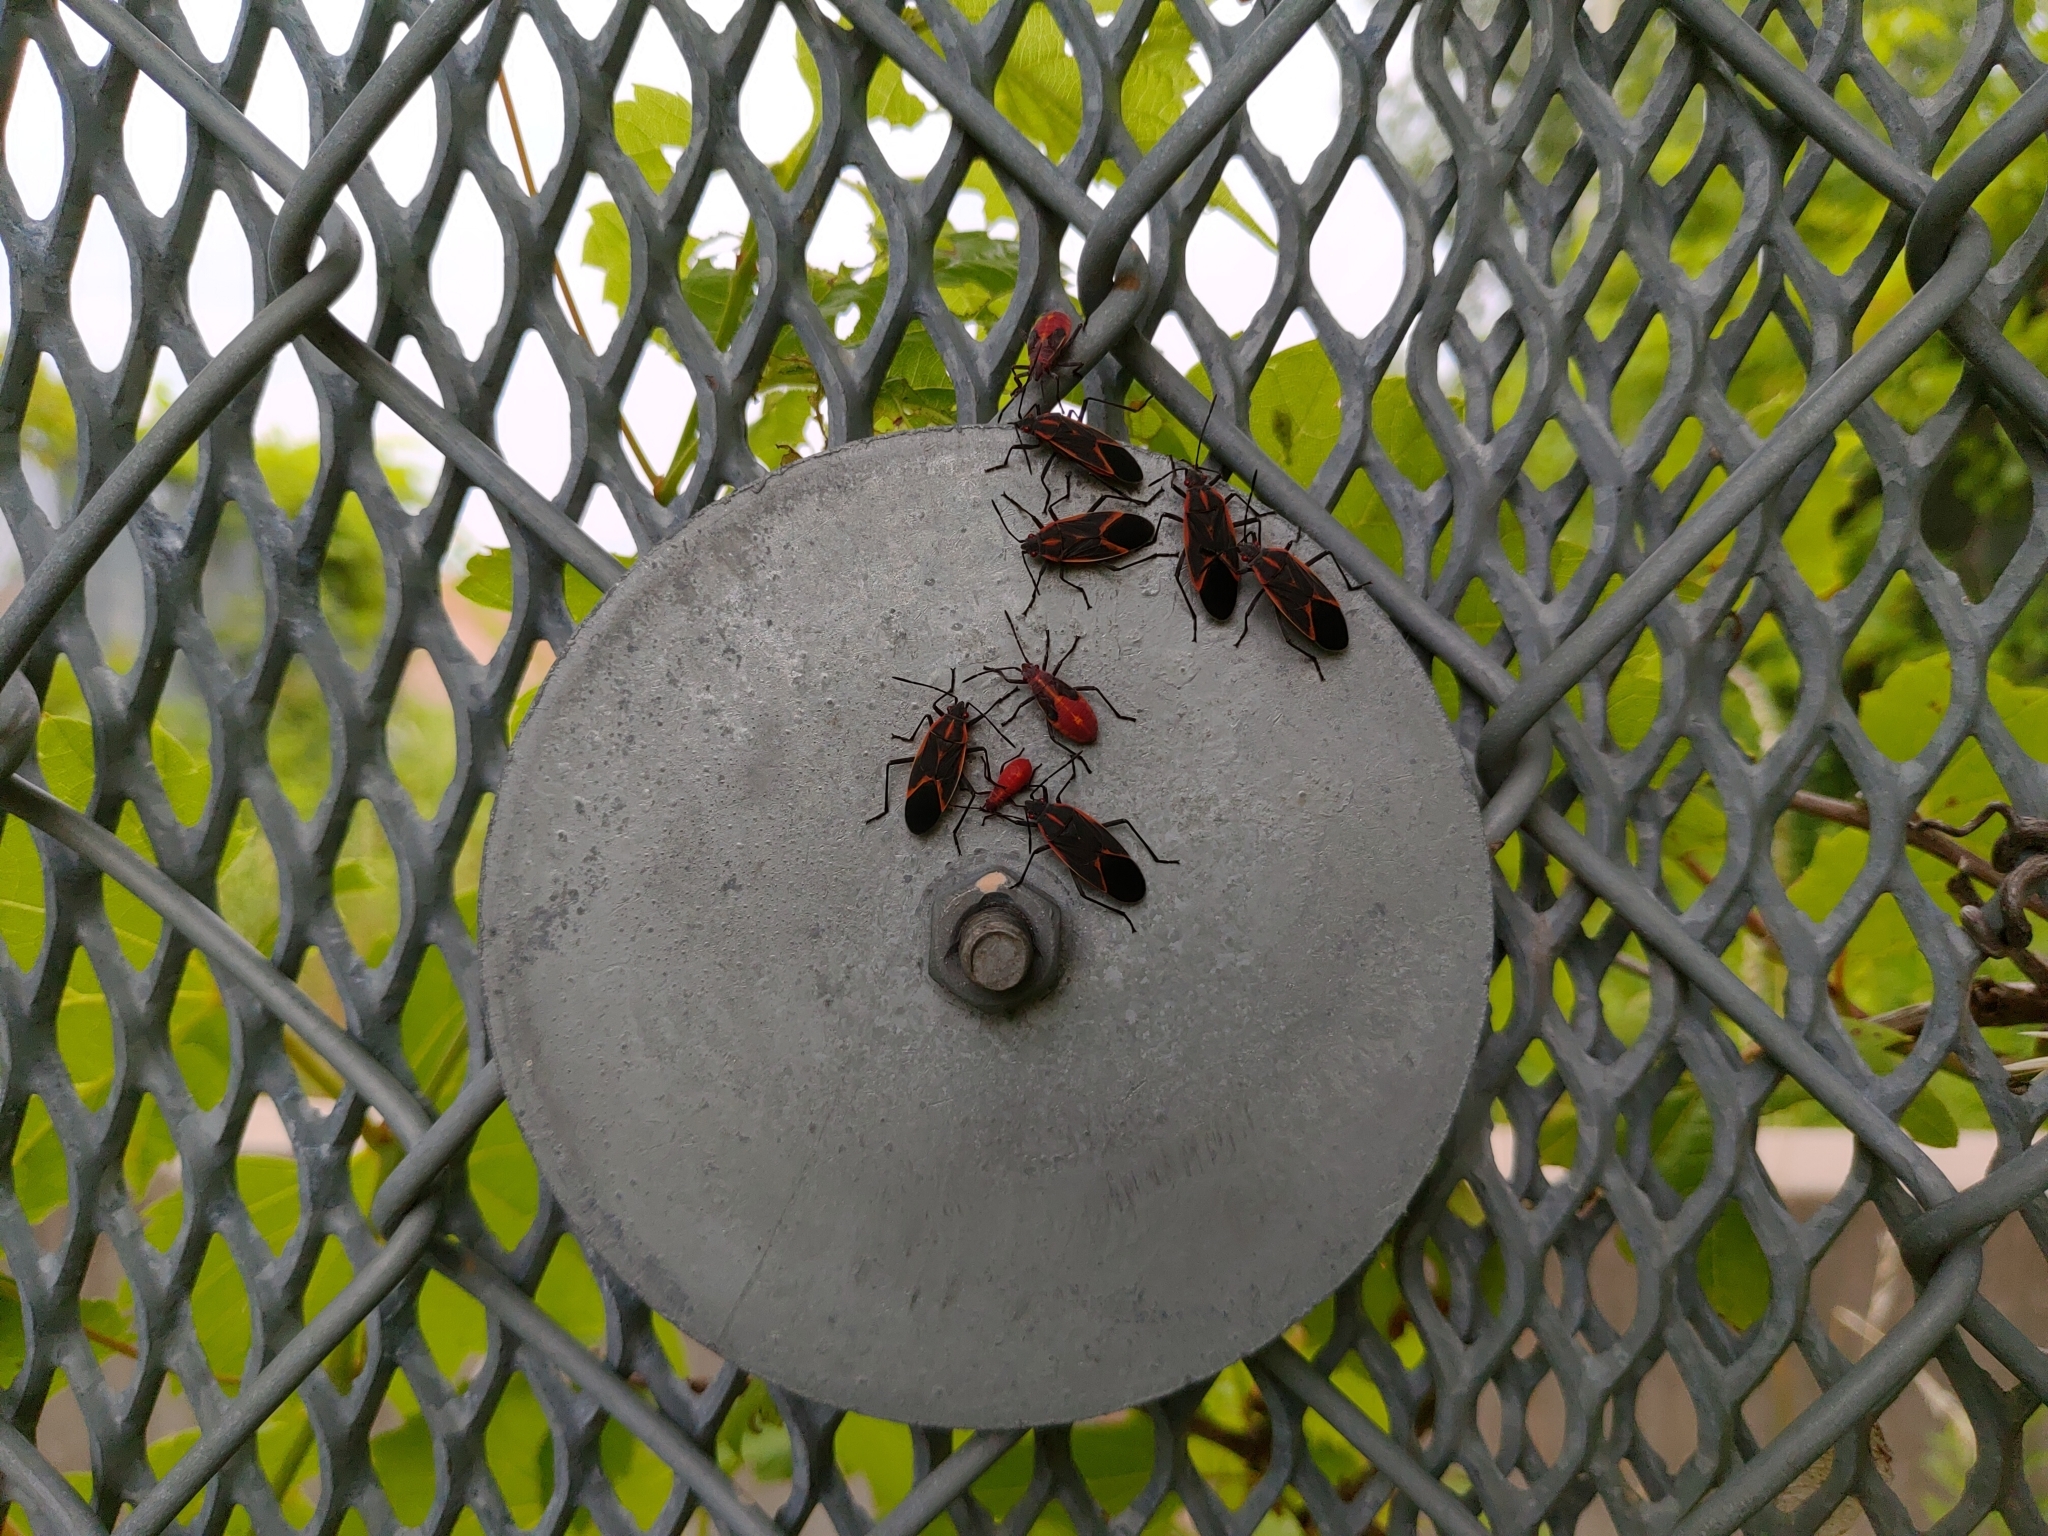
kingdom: Animalia
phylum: Arthropoda
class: Insecta
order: Hemiptera
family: Rhopalidae
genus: Boisea
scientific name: Boisea trivittata
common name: Boxelder bug
